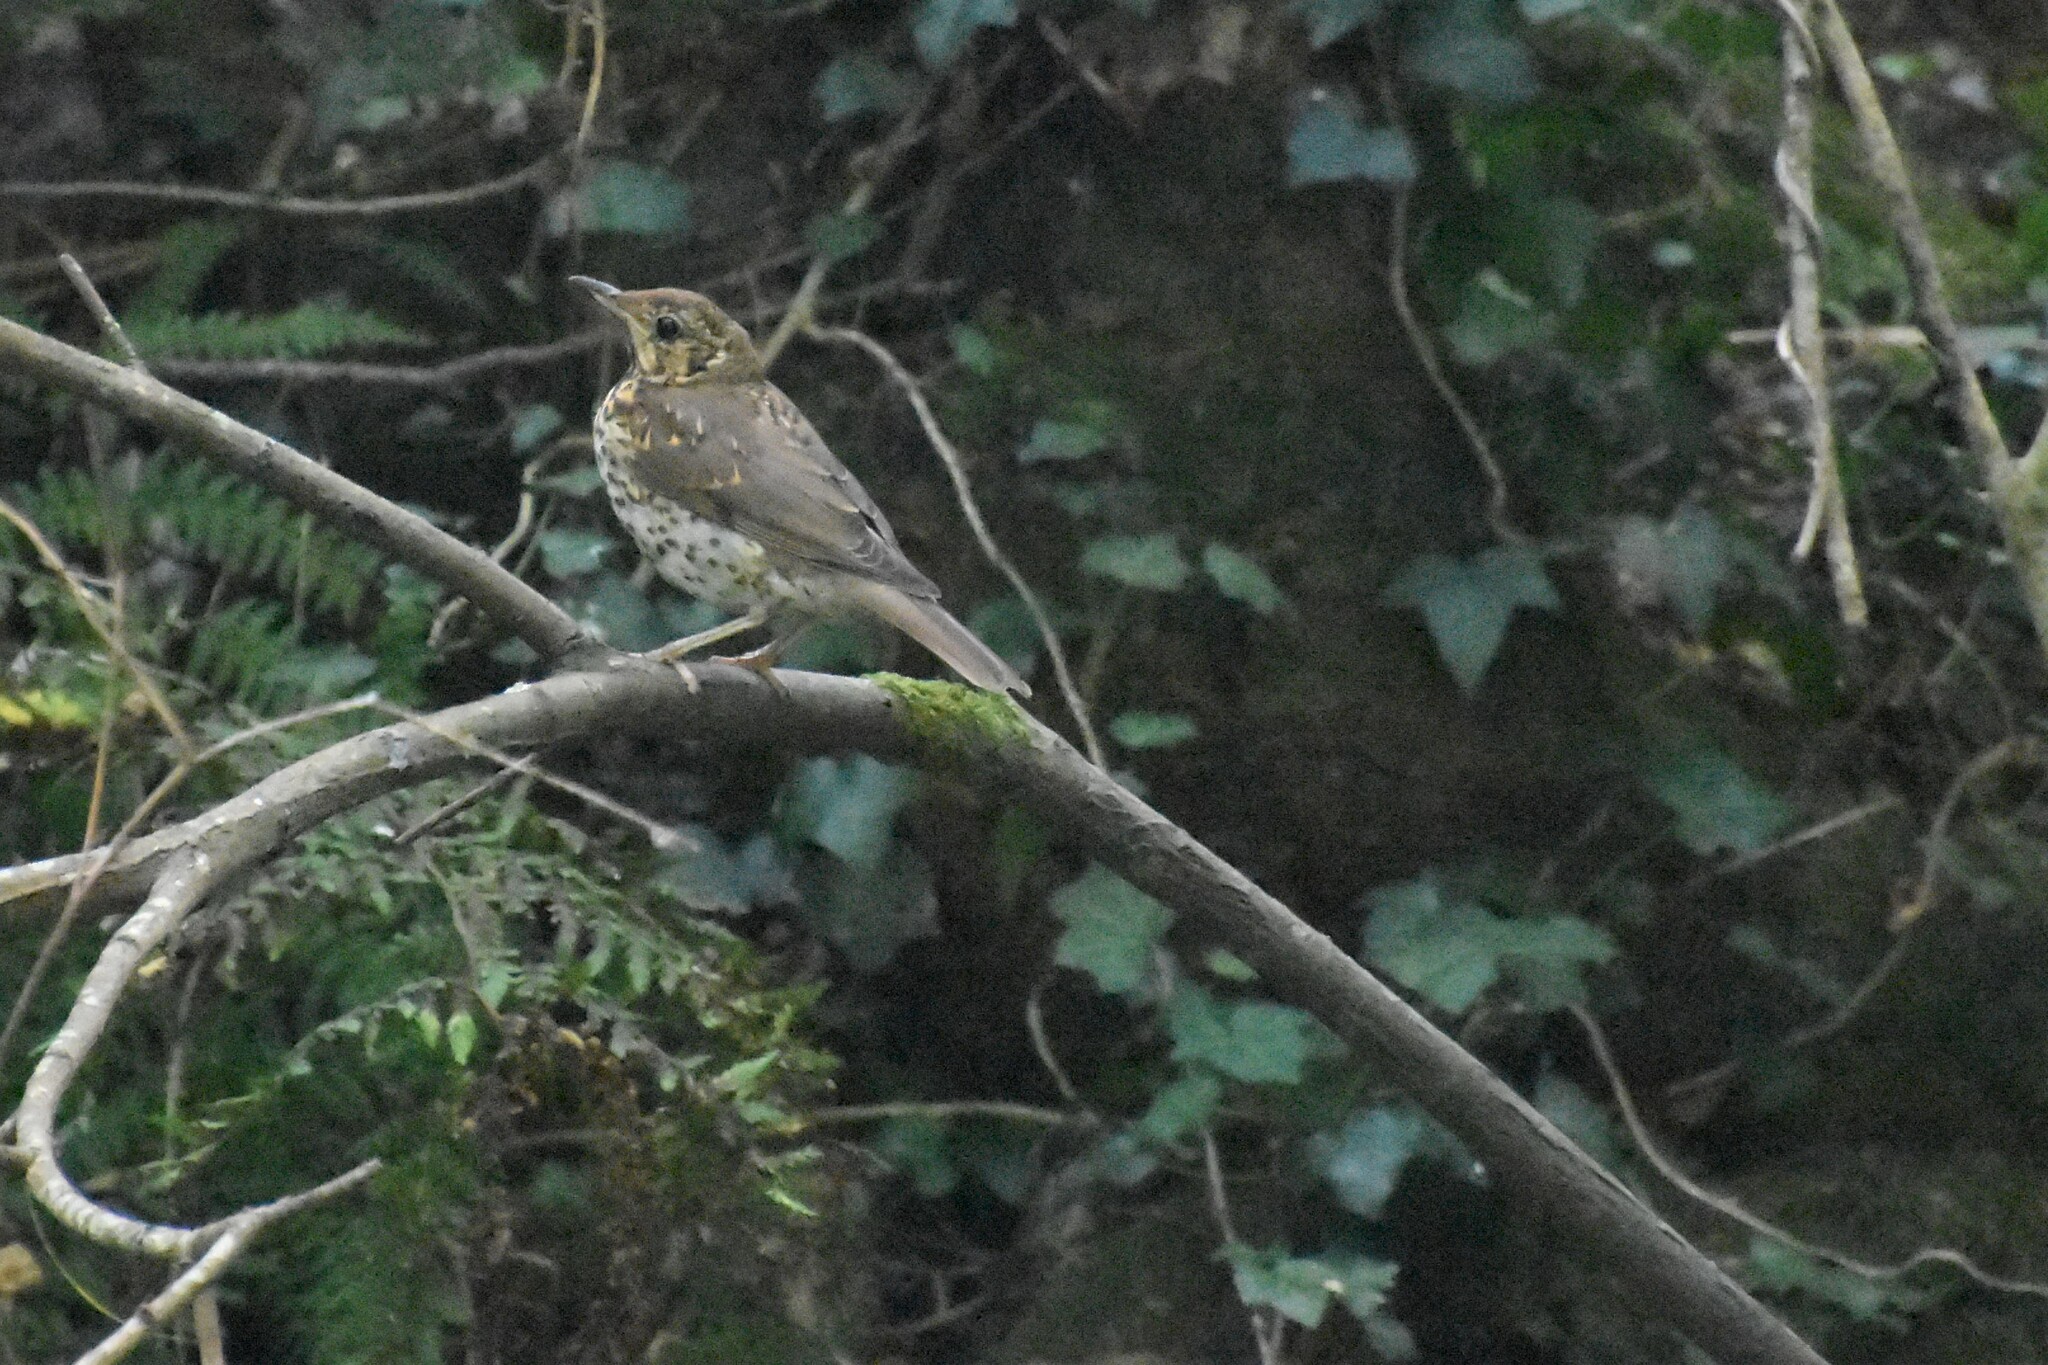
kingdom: Animalia
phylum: Chordata
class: Aves
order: Passeriformes
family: Turdidae
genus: Turdus
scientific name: Turdus philomelos
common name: Song thrush
